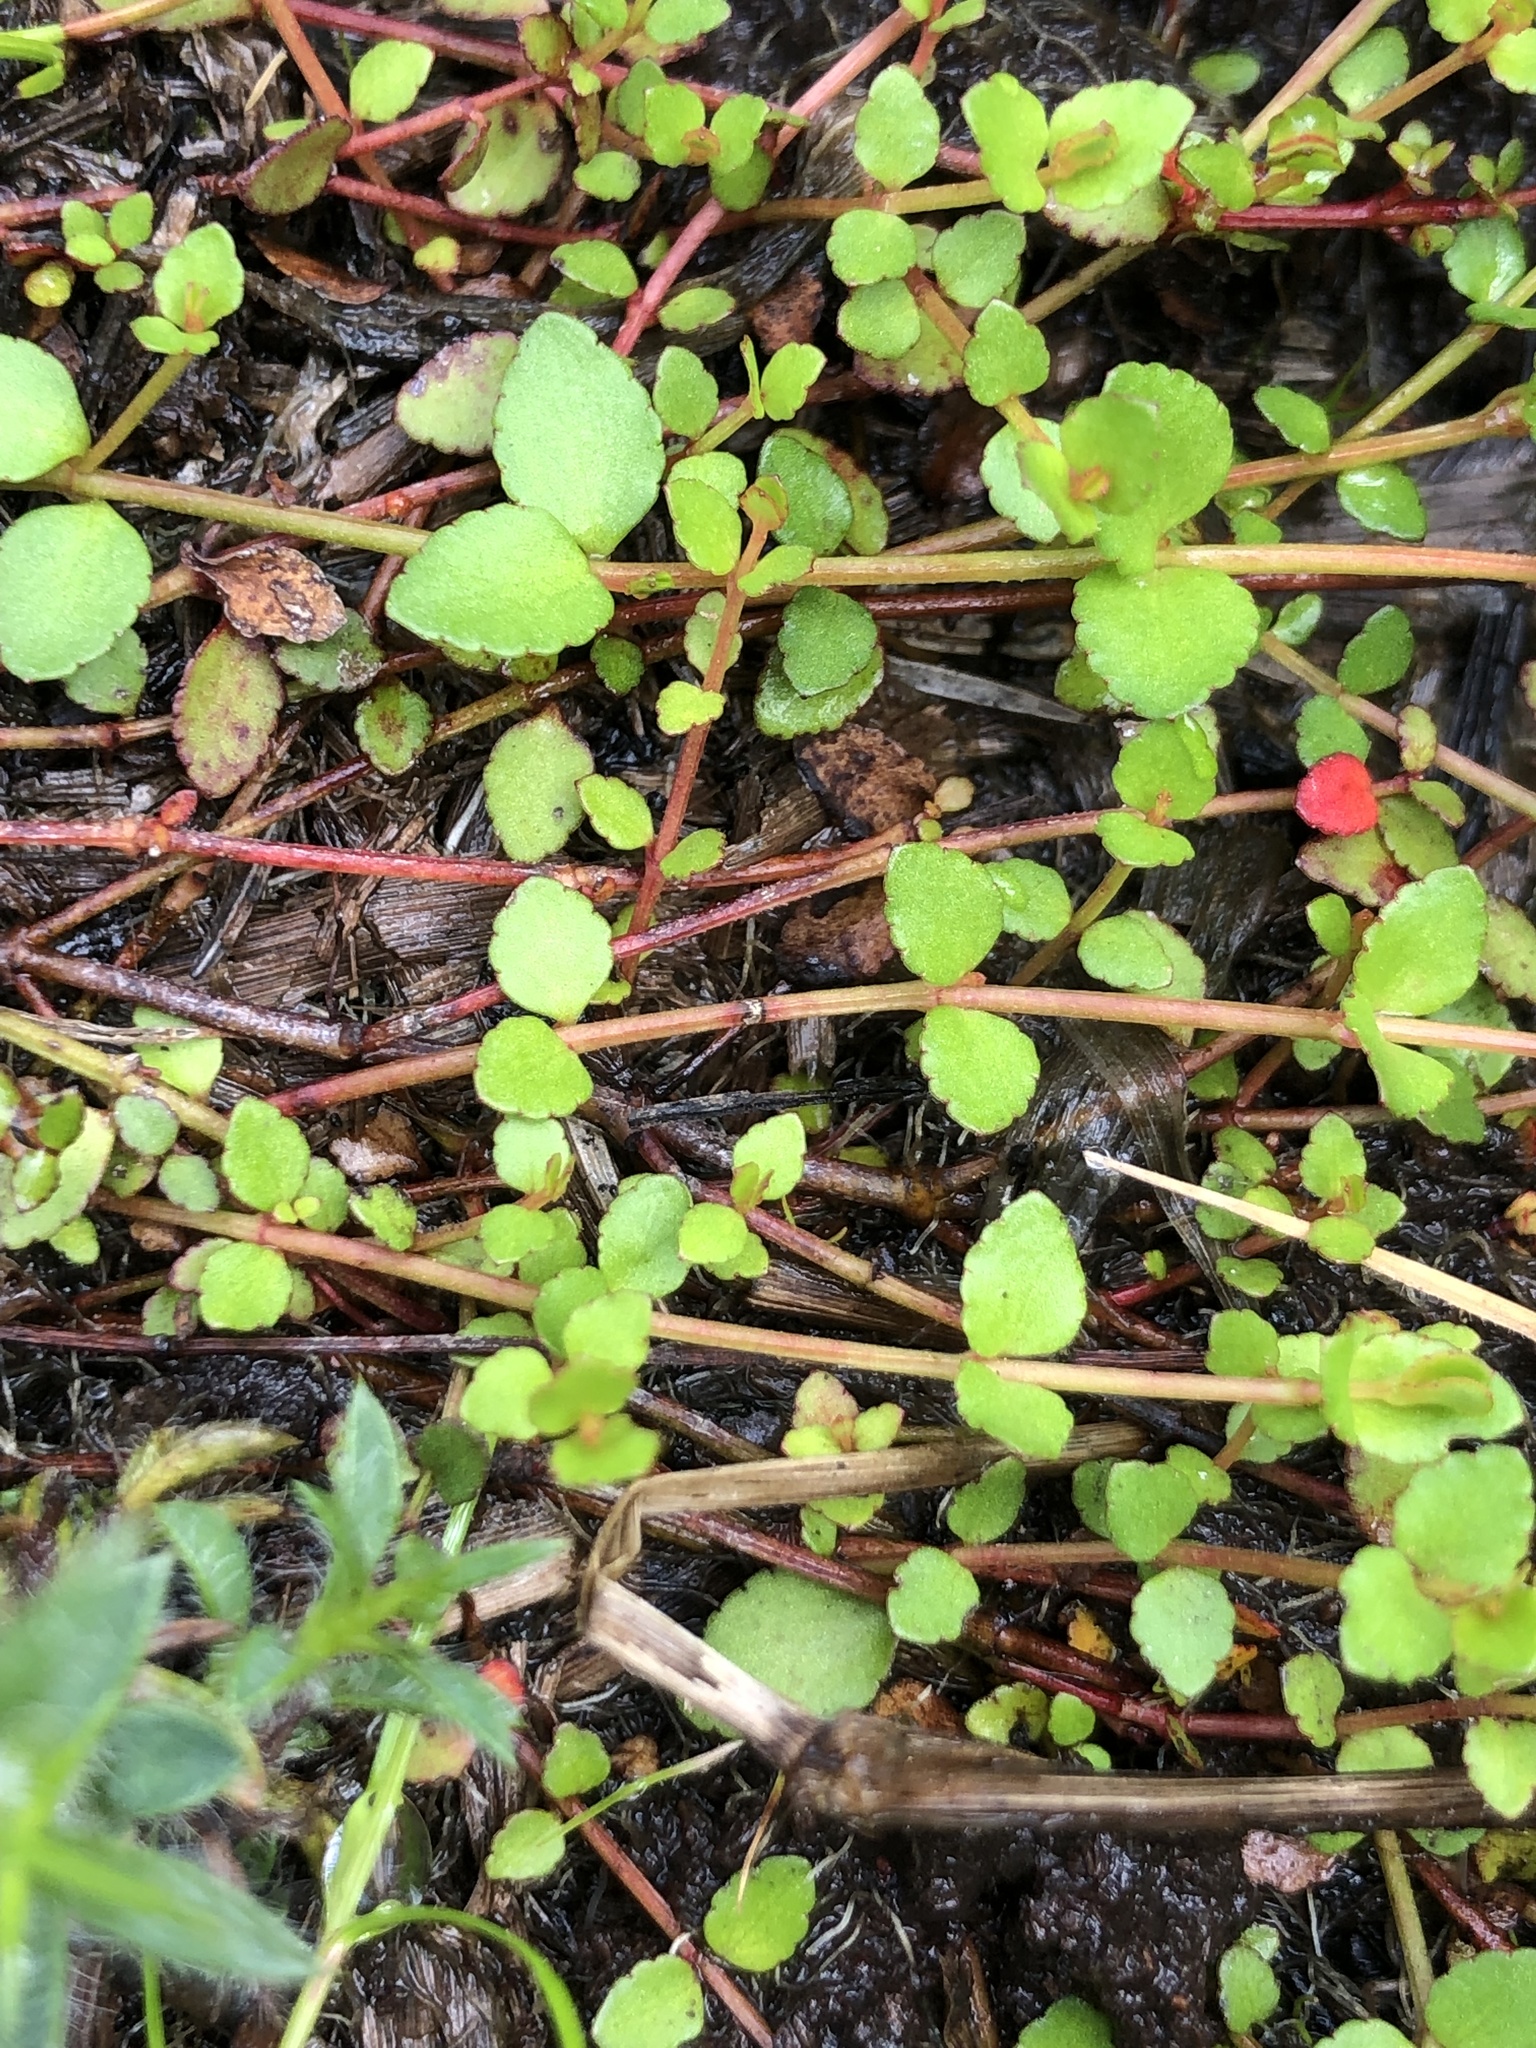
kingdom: Plantae
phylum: Tracheophyta
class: Magnoliopsida
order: Saxifragales
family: Haloragaceae
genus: Gonocarpus
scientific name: Gonocarpus micranthus
